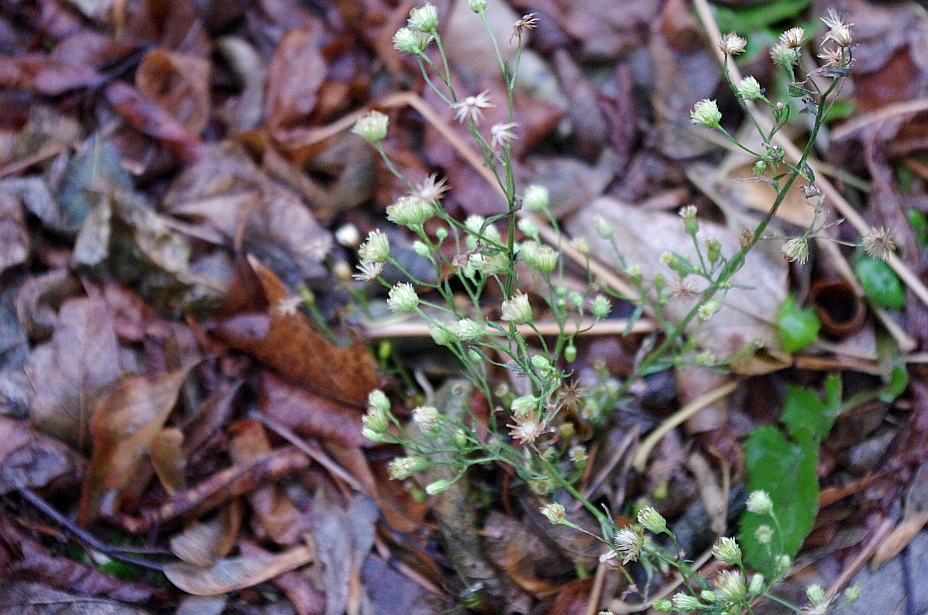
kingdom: Plantae
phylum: Tracheophyta
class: Magnoliopsida
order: Asterales
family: Asteraceae
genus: Erigeron
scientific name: Erigeron canadensis
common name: Canadian fleabane
